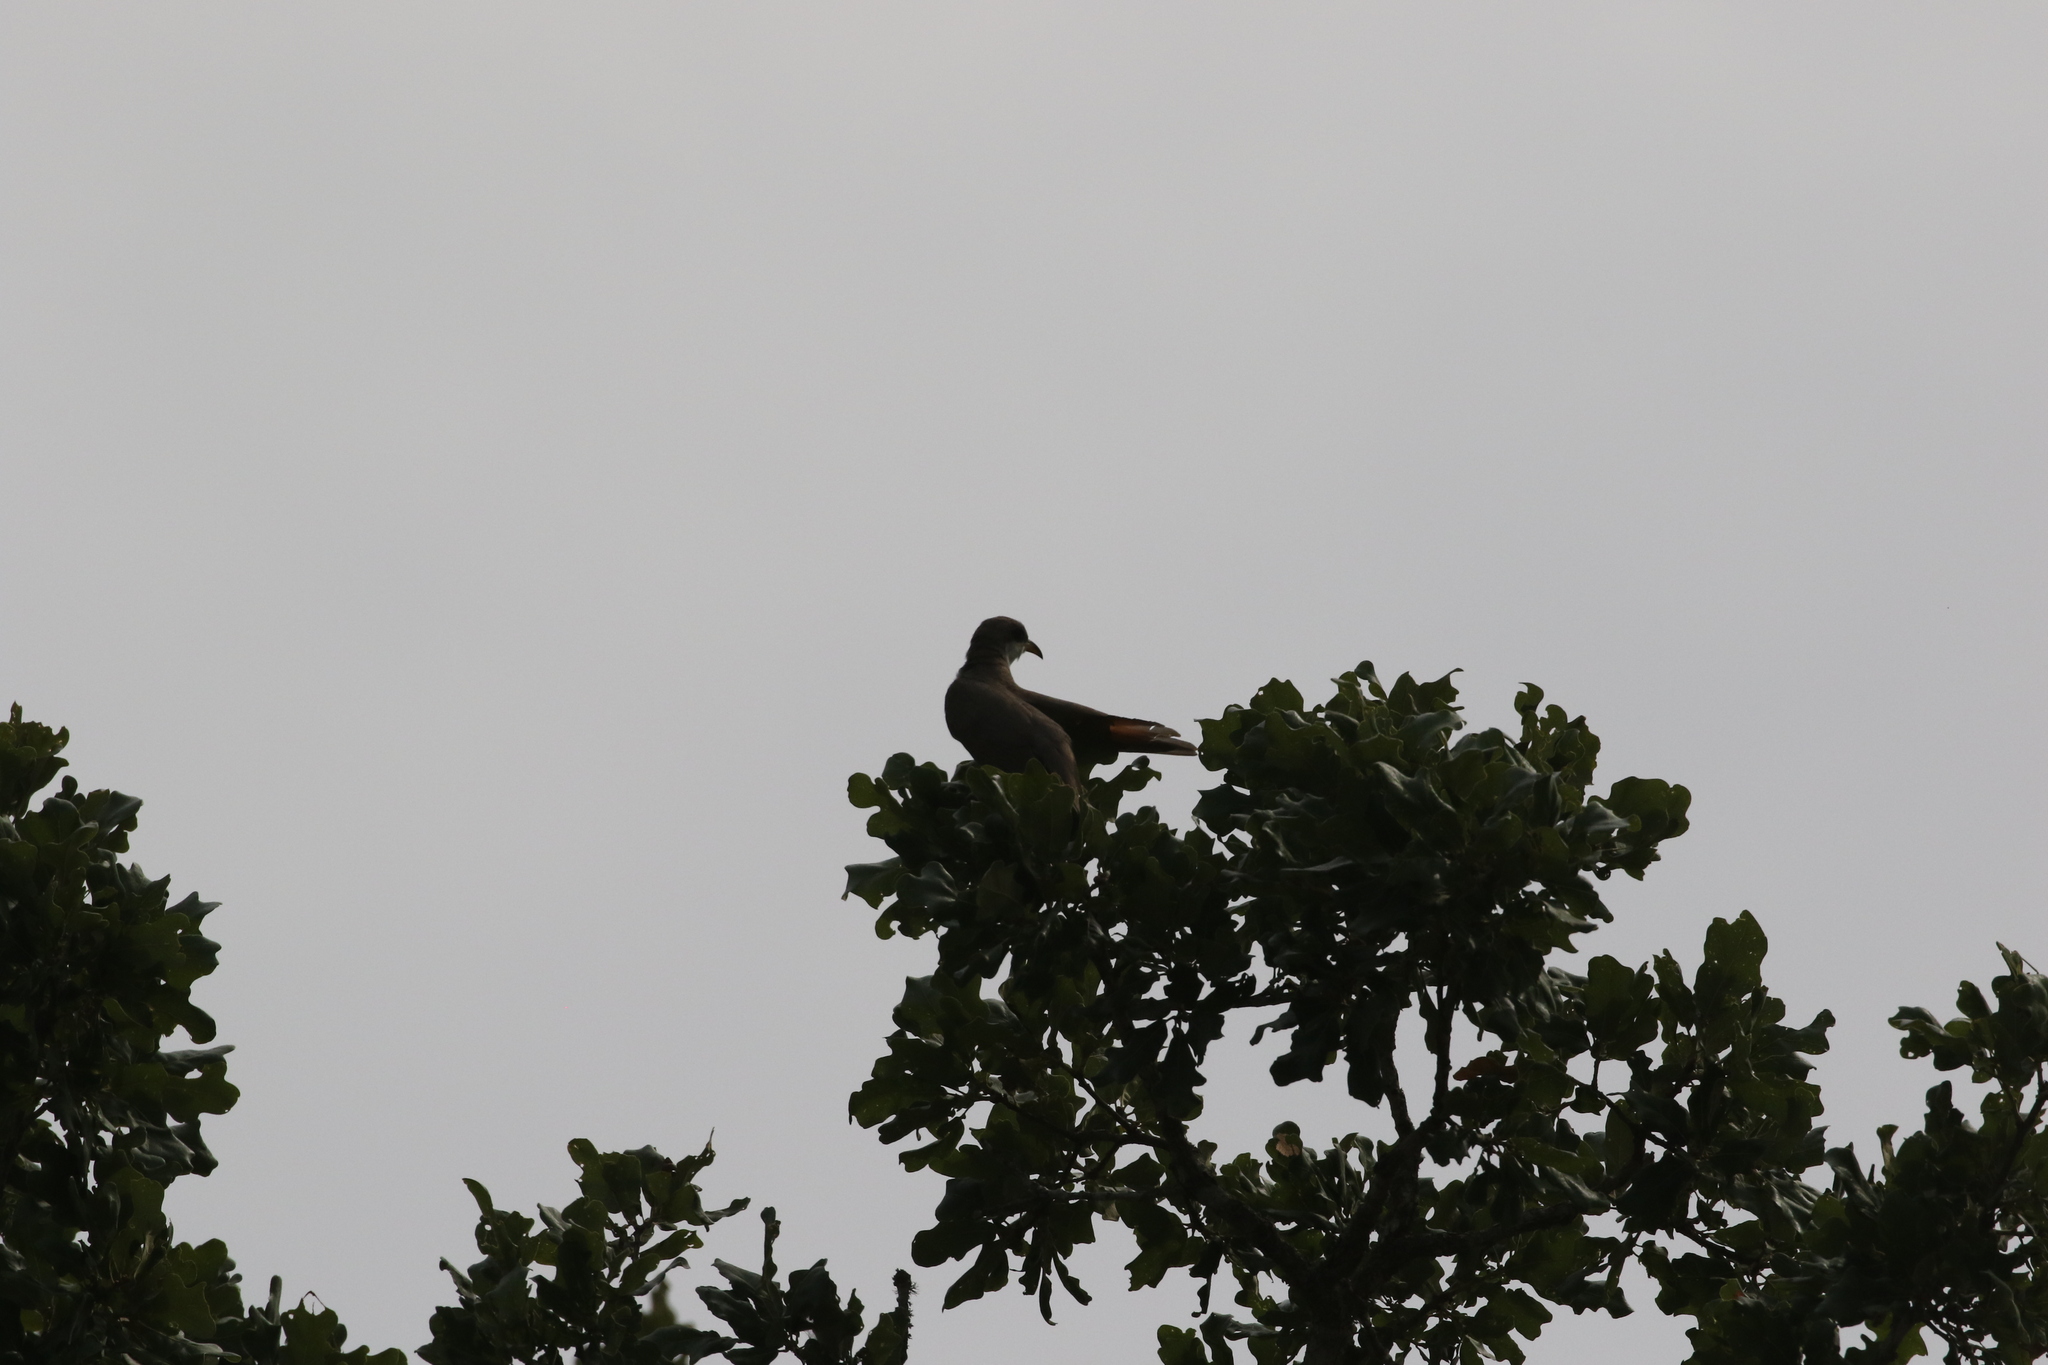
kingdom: Animalia
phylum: Chordata
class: Aves
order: Cuculiformes
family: Cuculidae
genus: Coccyzus
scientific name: Coccyzus americanus
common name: Yellow-billed cuckoo
